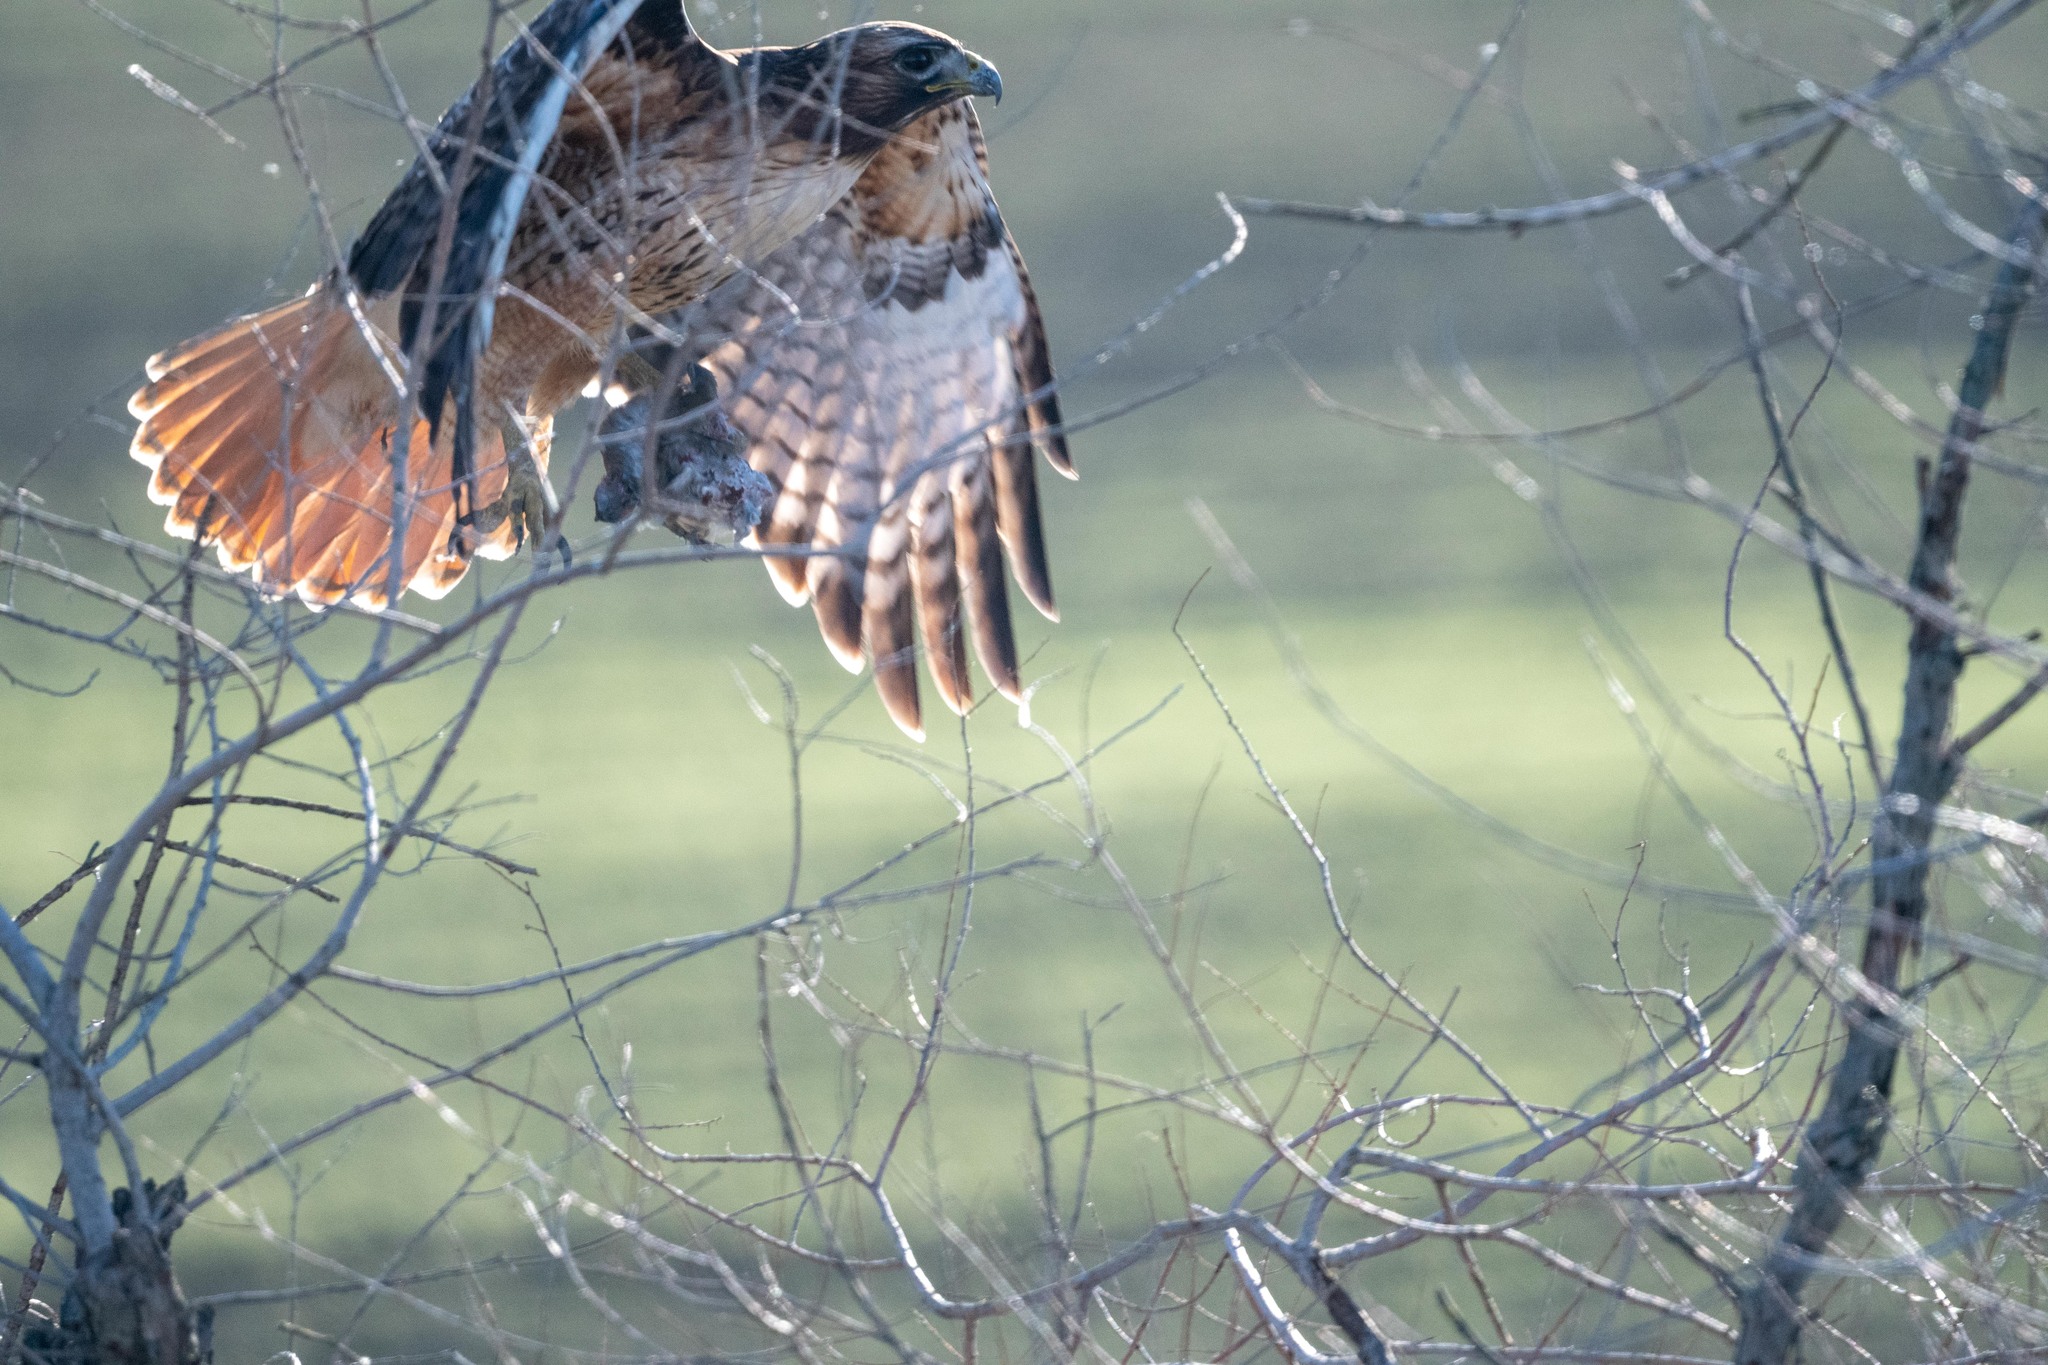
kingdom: Animalia
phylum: Chordata
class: Aves
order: Accipitriformes
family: Accipitridae
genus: Buteo
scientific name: Buteo jamaicensis
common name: Red-tailed hawk
